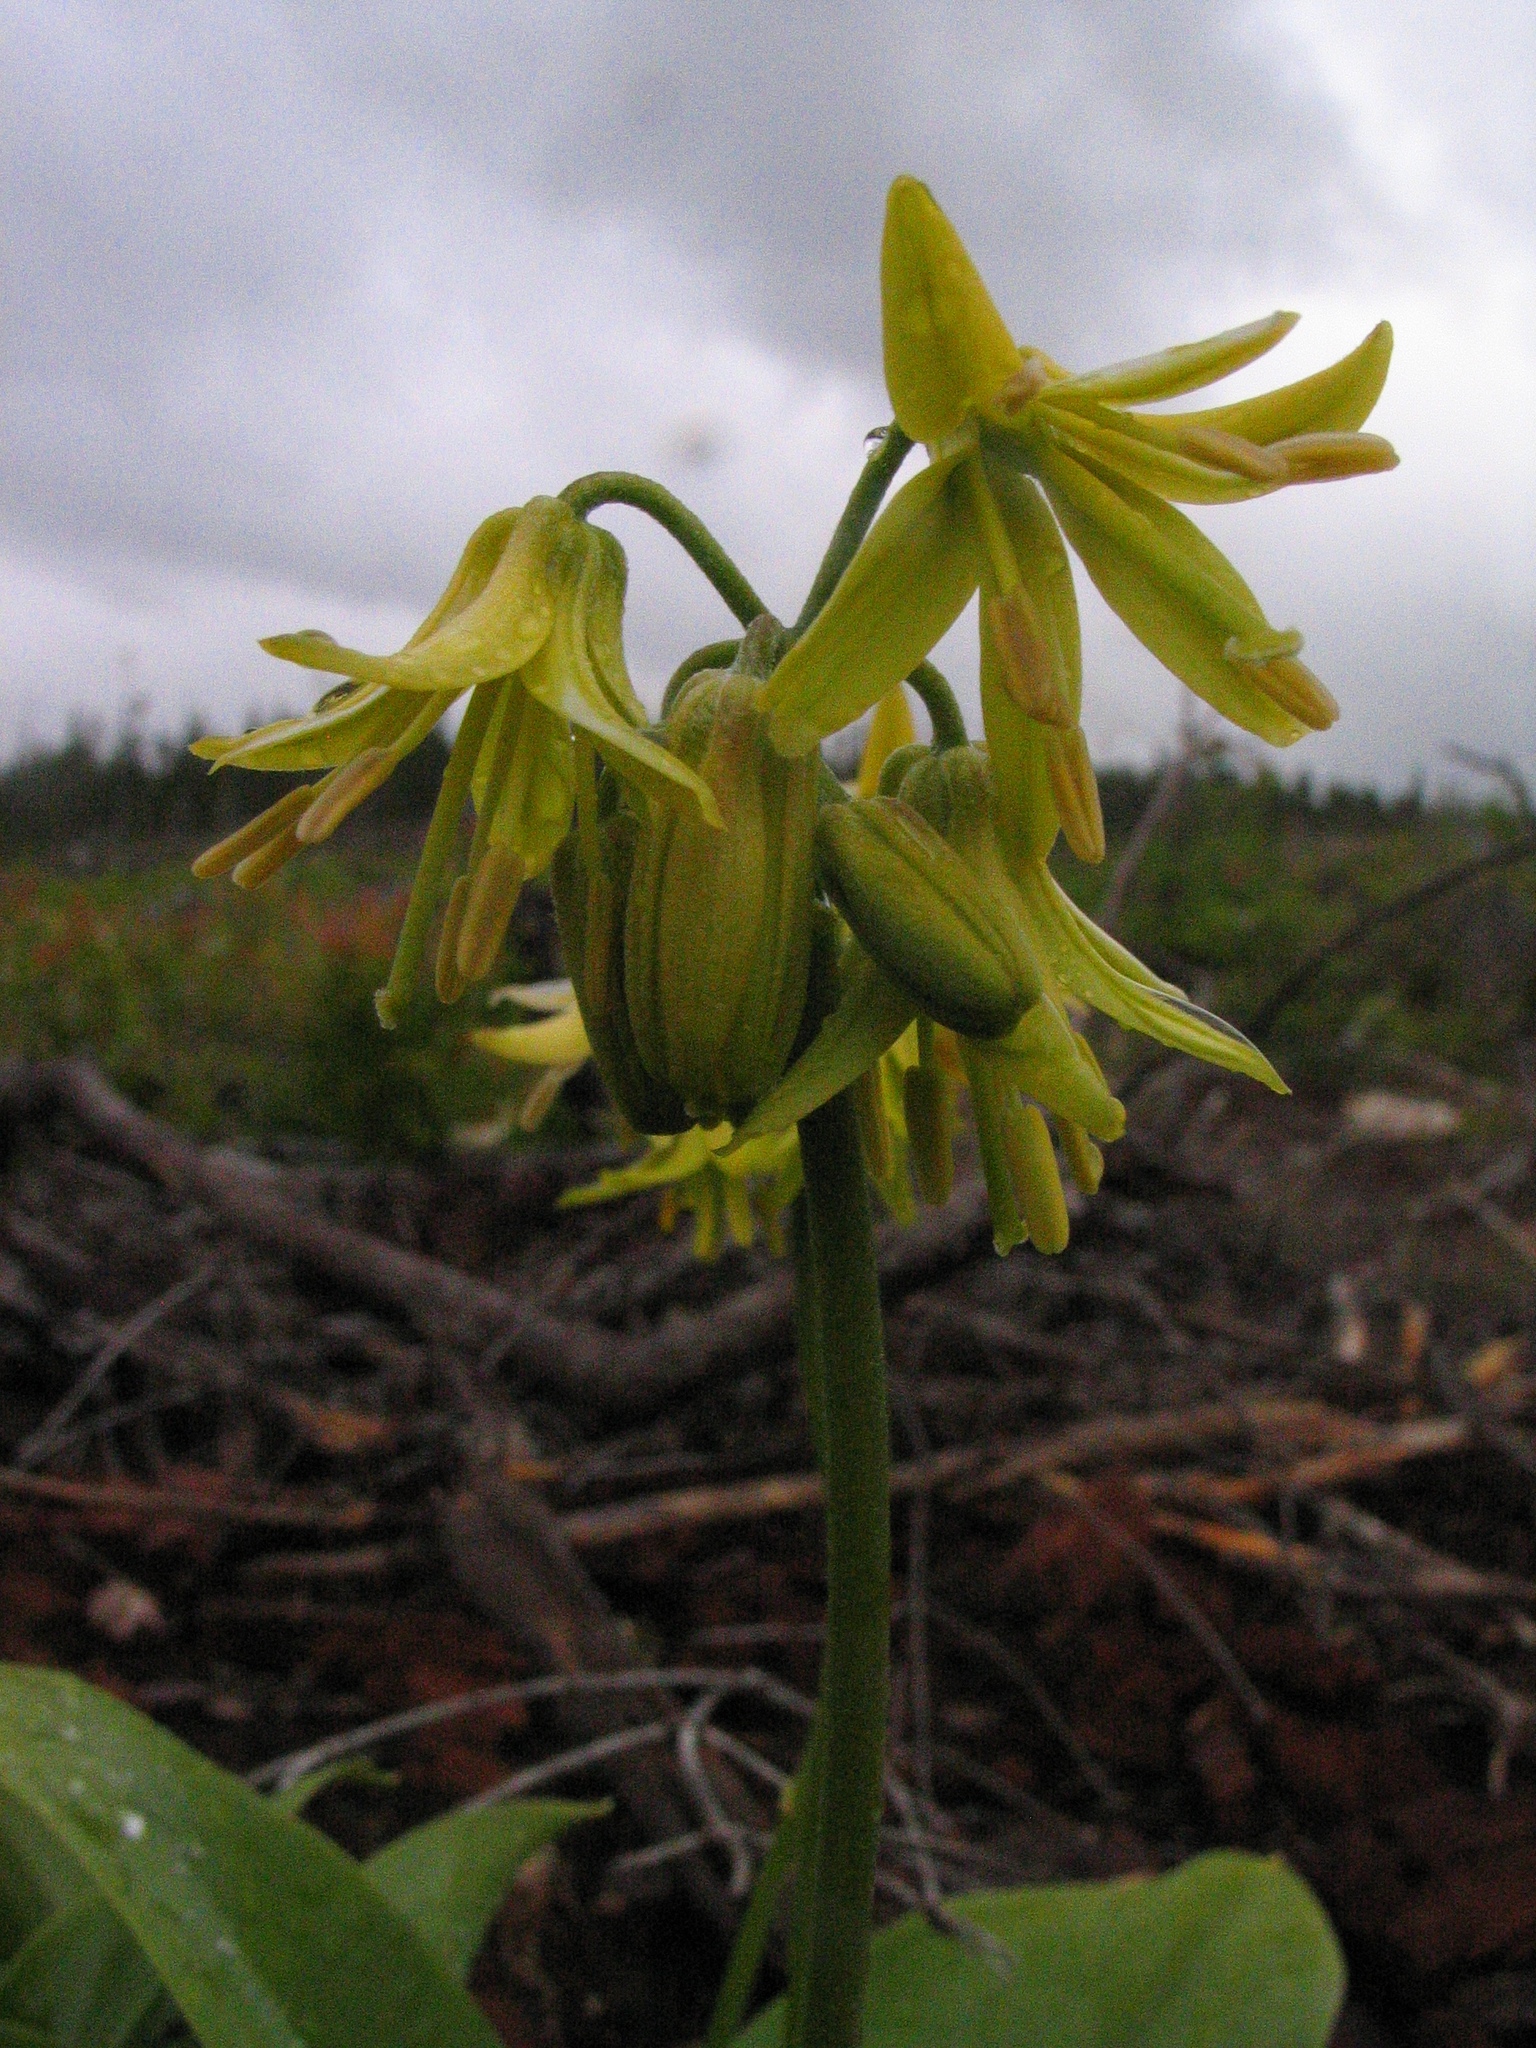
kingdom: Plantae
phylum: Tracheophyta
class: Liliopsida
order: Liliales
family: Liliaceae
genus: Clintonia
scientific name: Clintonia borealis
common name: Yellow clintonia
